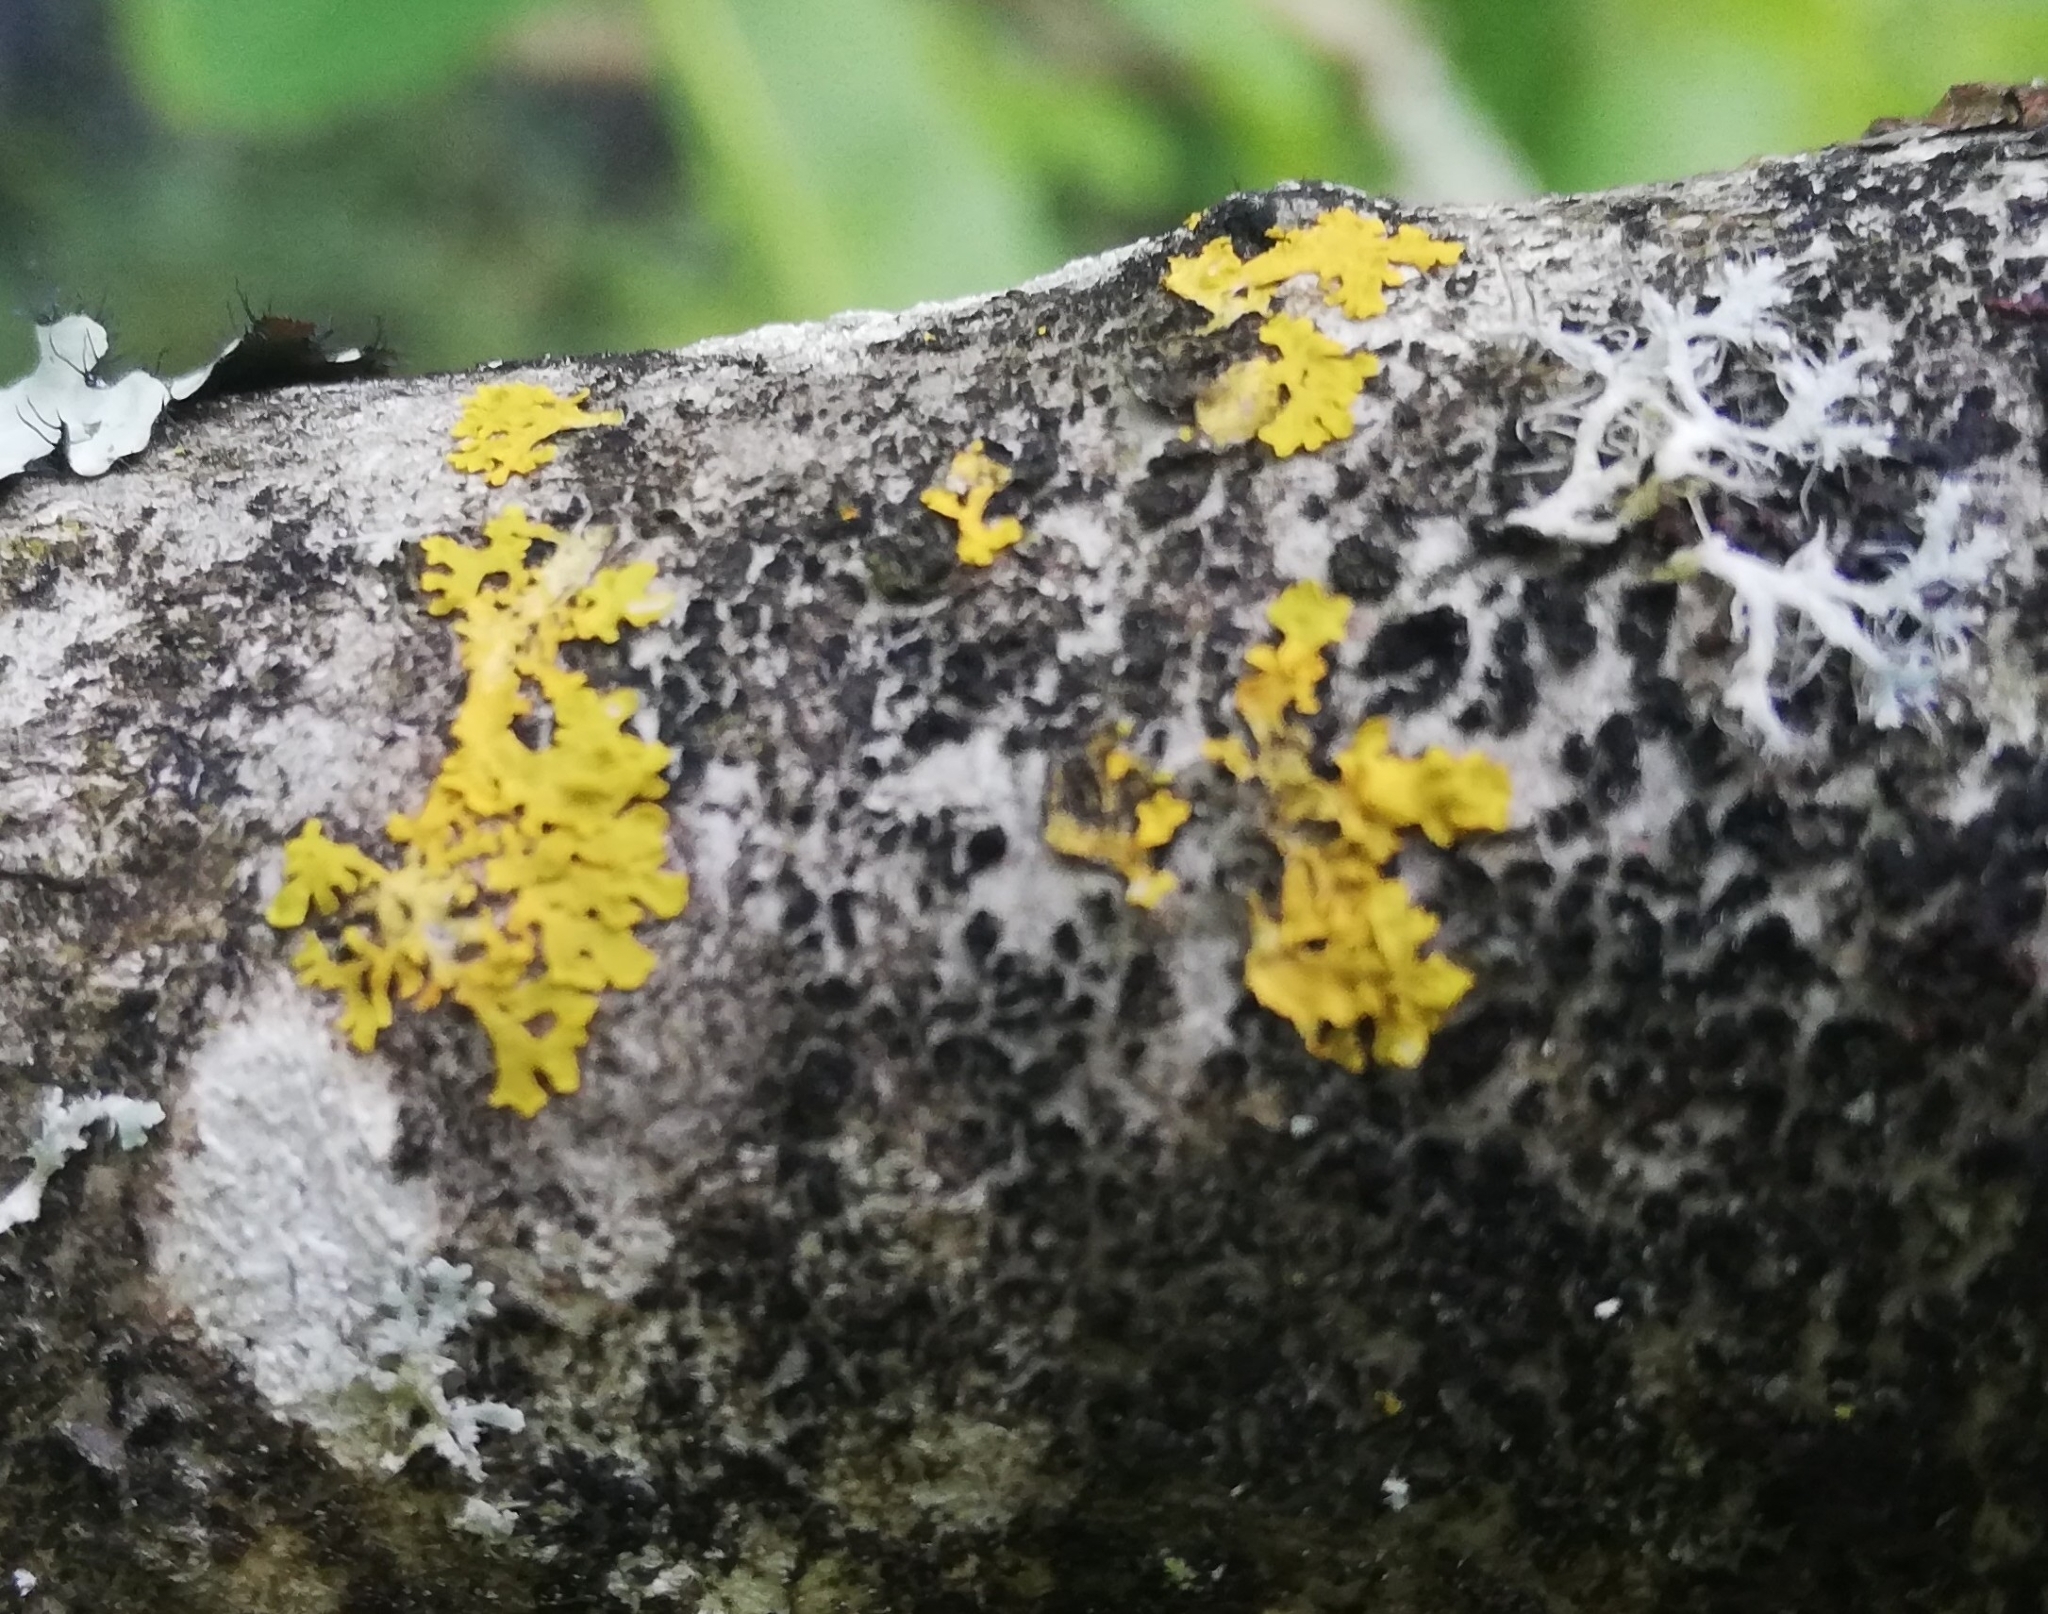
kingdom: Fungi
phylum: Ascomycota
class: Lecanoromycetes
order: Teloschistales
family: Teloschistaceae
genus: Xanthoria
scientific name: Xanthoria parietina
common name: Common orange lichen
